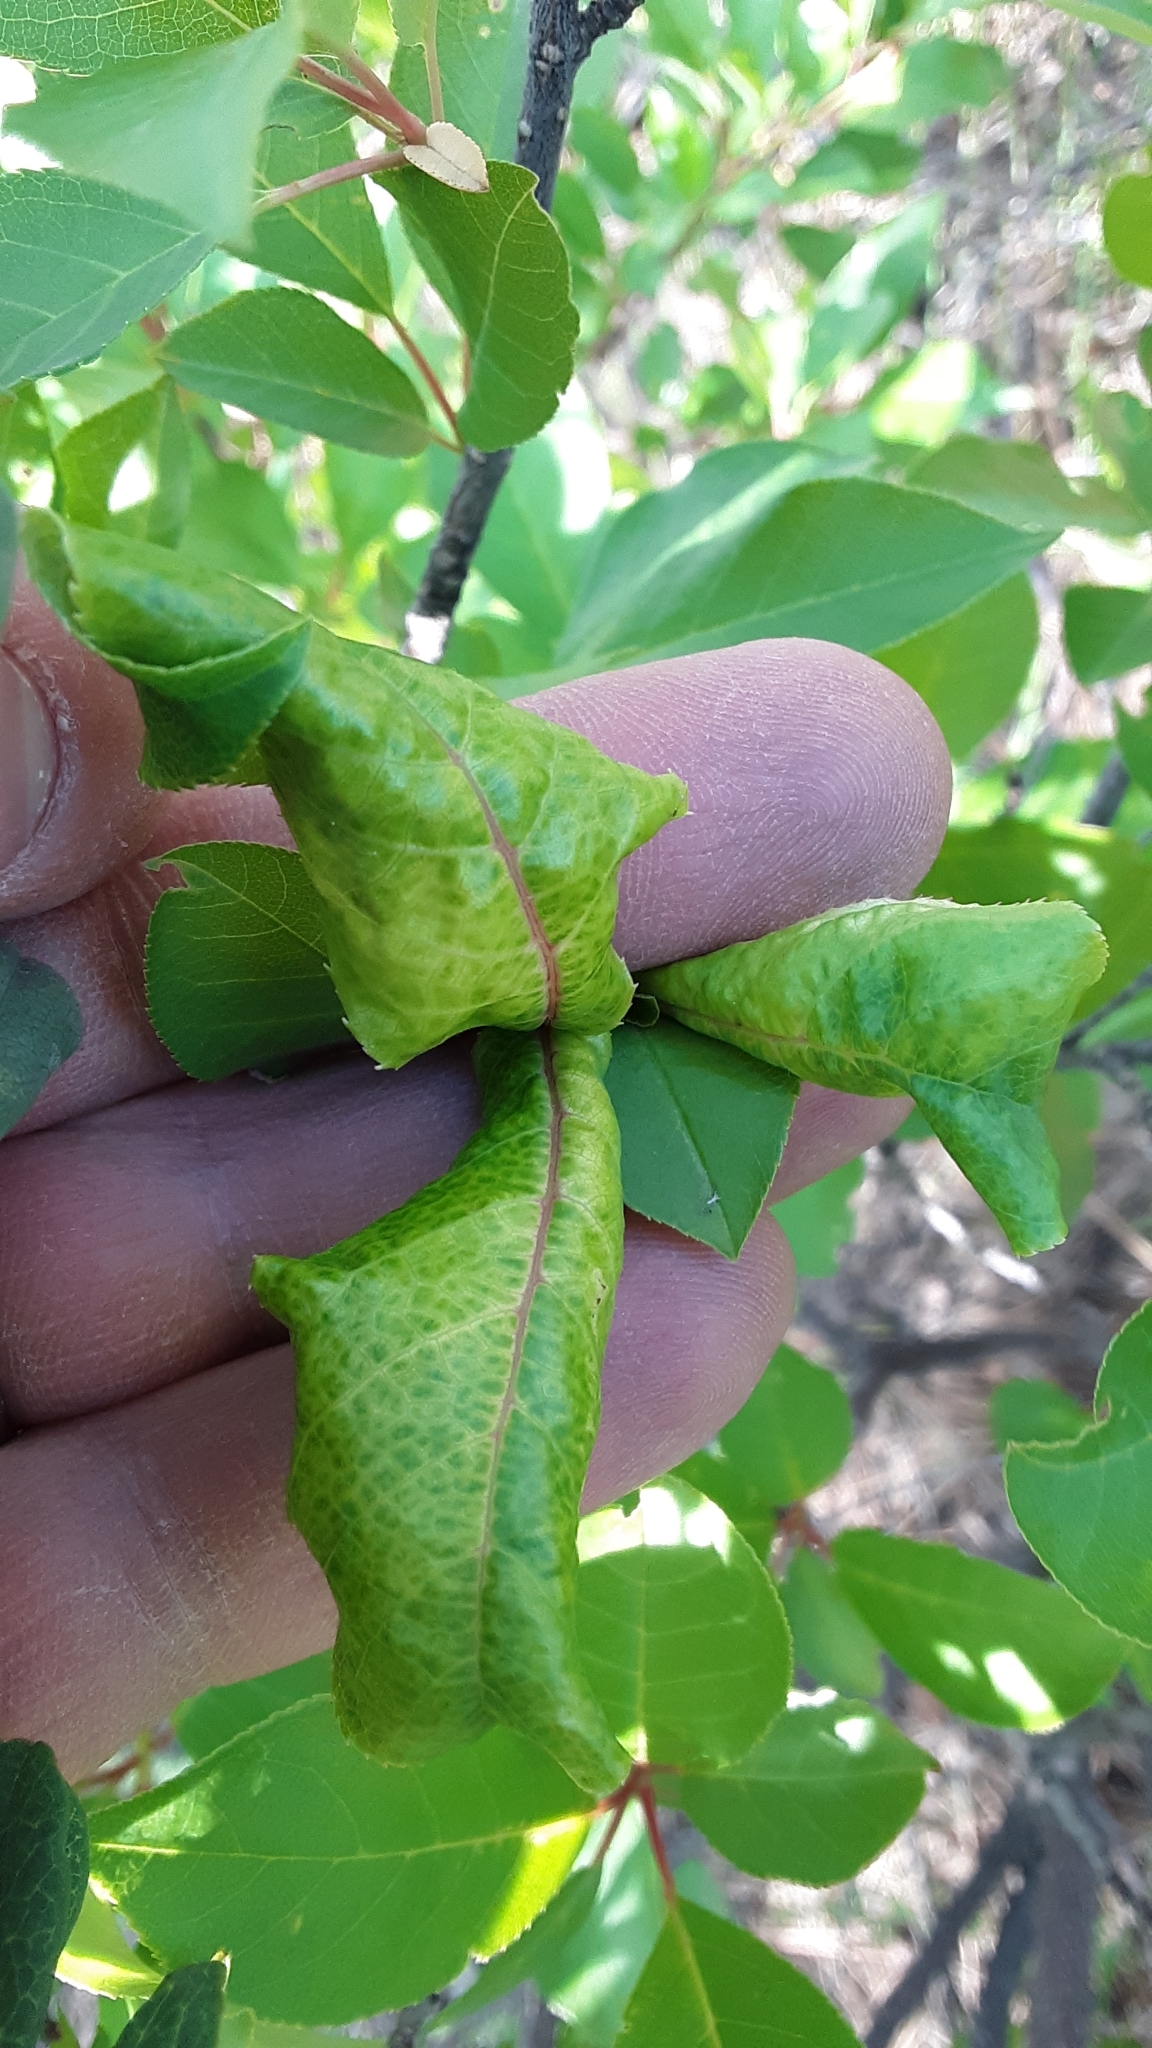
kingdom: Plantae
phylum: Tracheophyta
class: Magnoliopsida
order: Rosales
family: Rosaceae
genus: Prunus
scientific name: Prunus virginiana
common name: Chokecherry
